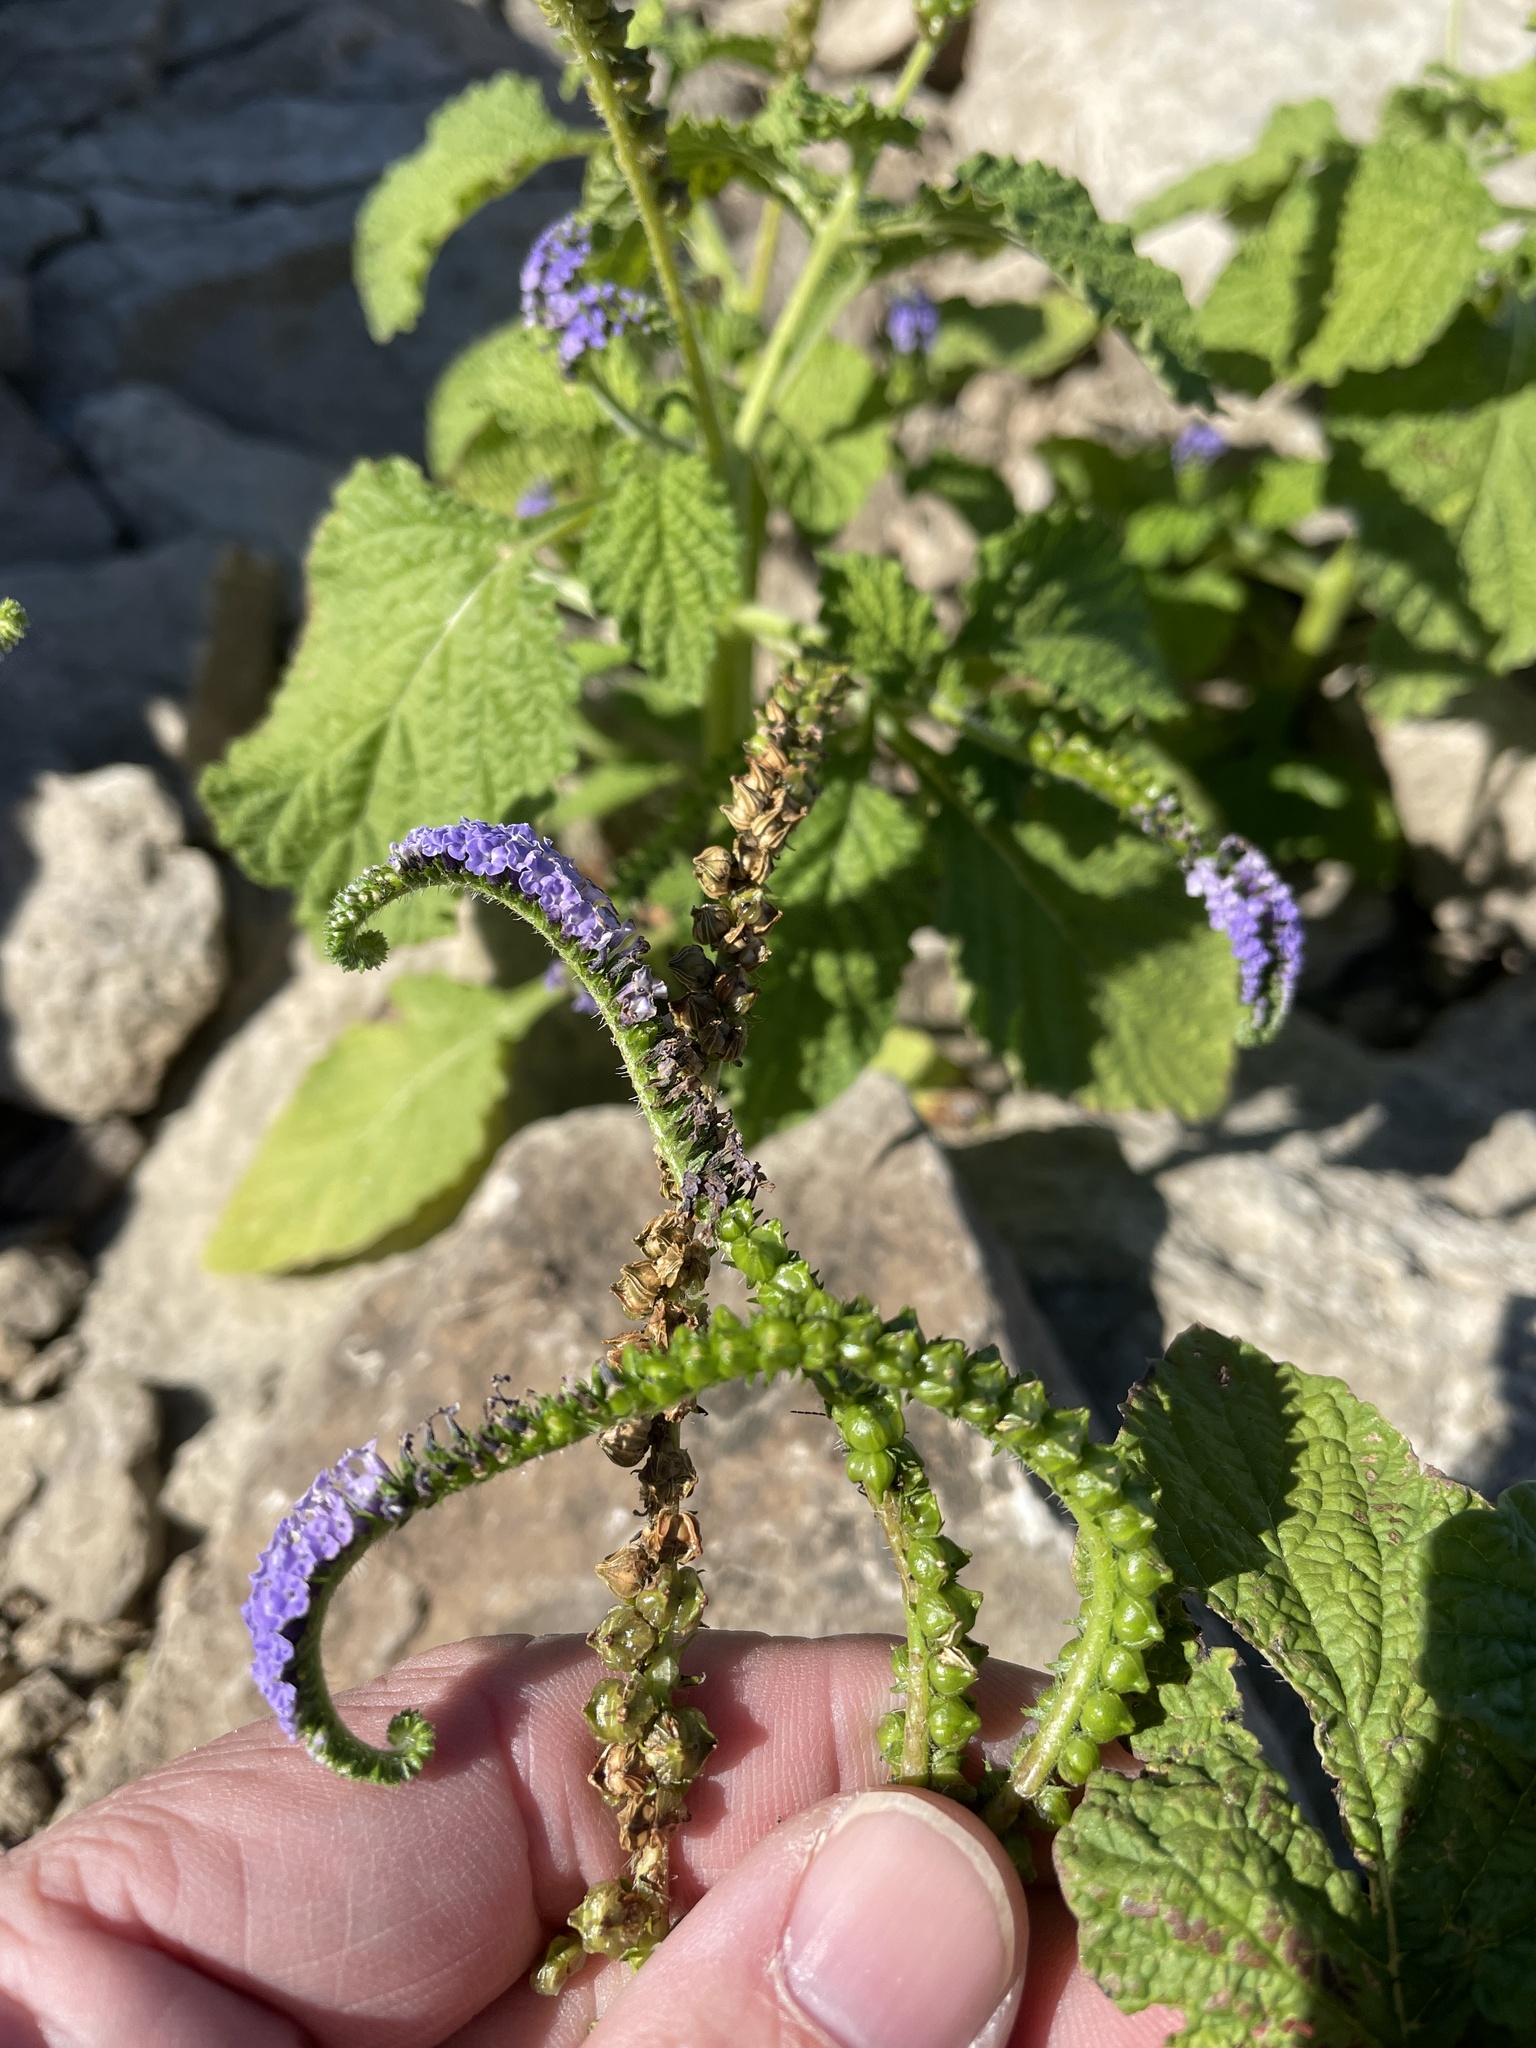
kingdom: Plantae
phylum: Tracheophyta
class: Magnoliopsida
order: Boraginales
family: Heliotropiaceae
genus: Heliotropium
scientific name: Heliotropium indicum
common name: Indian heliotrope
